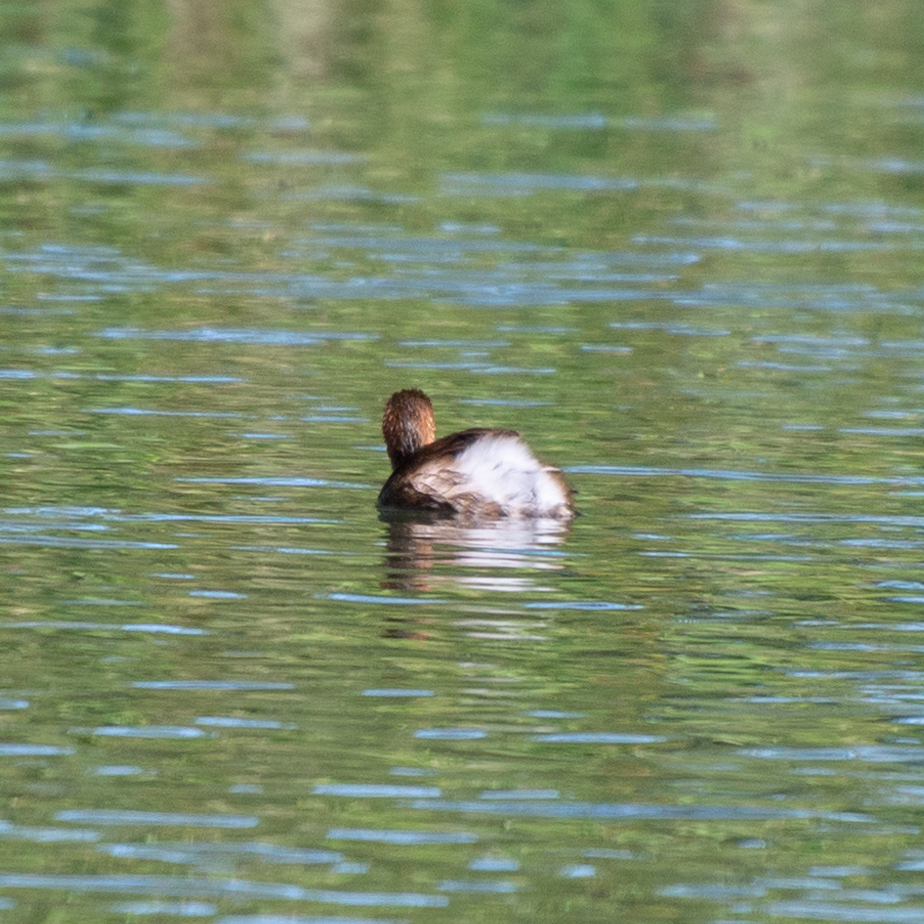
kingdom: Animalia
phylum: Chordata
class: Aves
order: Podicipediformes
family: Podicipedidae
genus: Tachybaptus
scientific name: Tachybaptus ruficollis
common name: Little grebe
